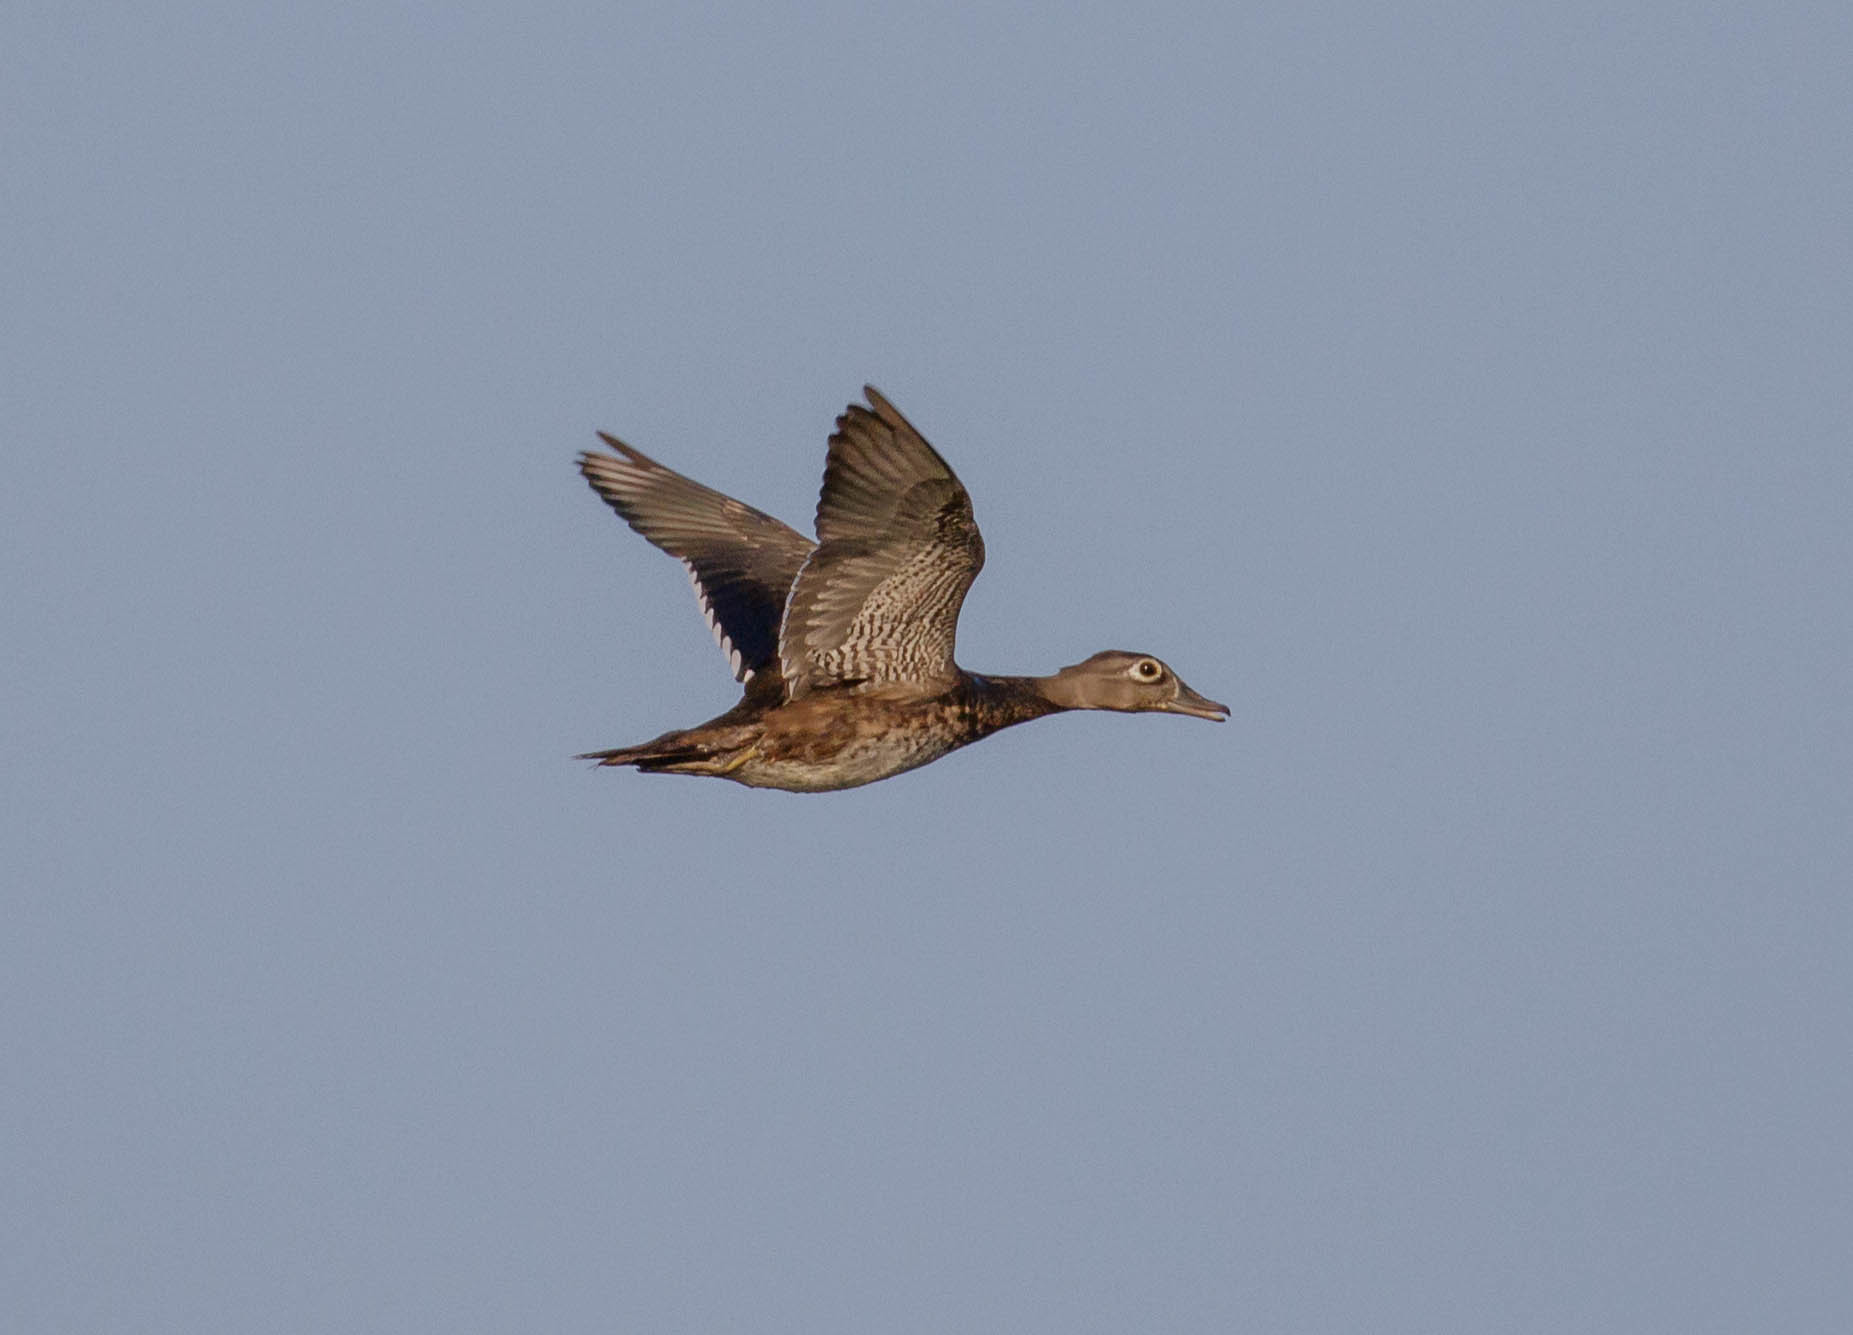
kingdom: Animalia
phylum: Chordata
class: Aves
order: Anseriformes
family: Anatidae
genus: Aix
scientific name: Aix sponsa
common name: Wood duck
